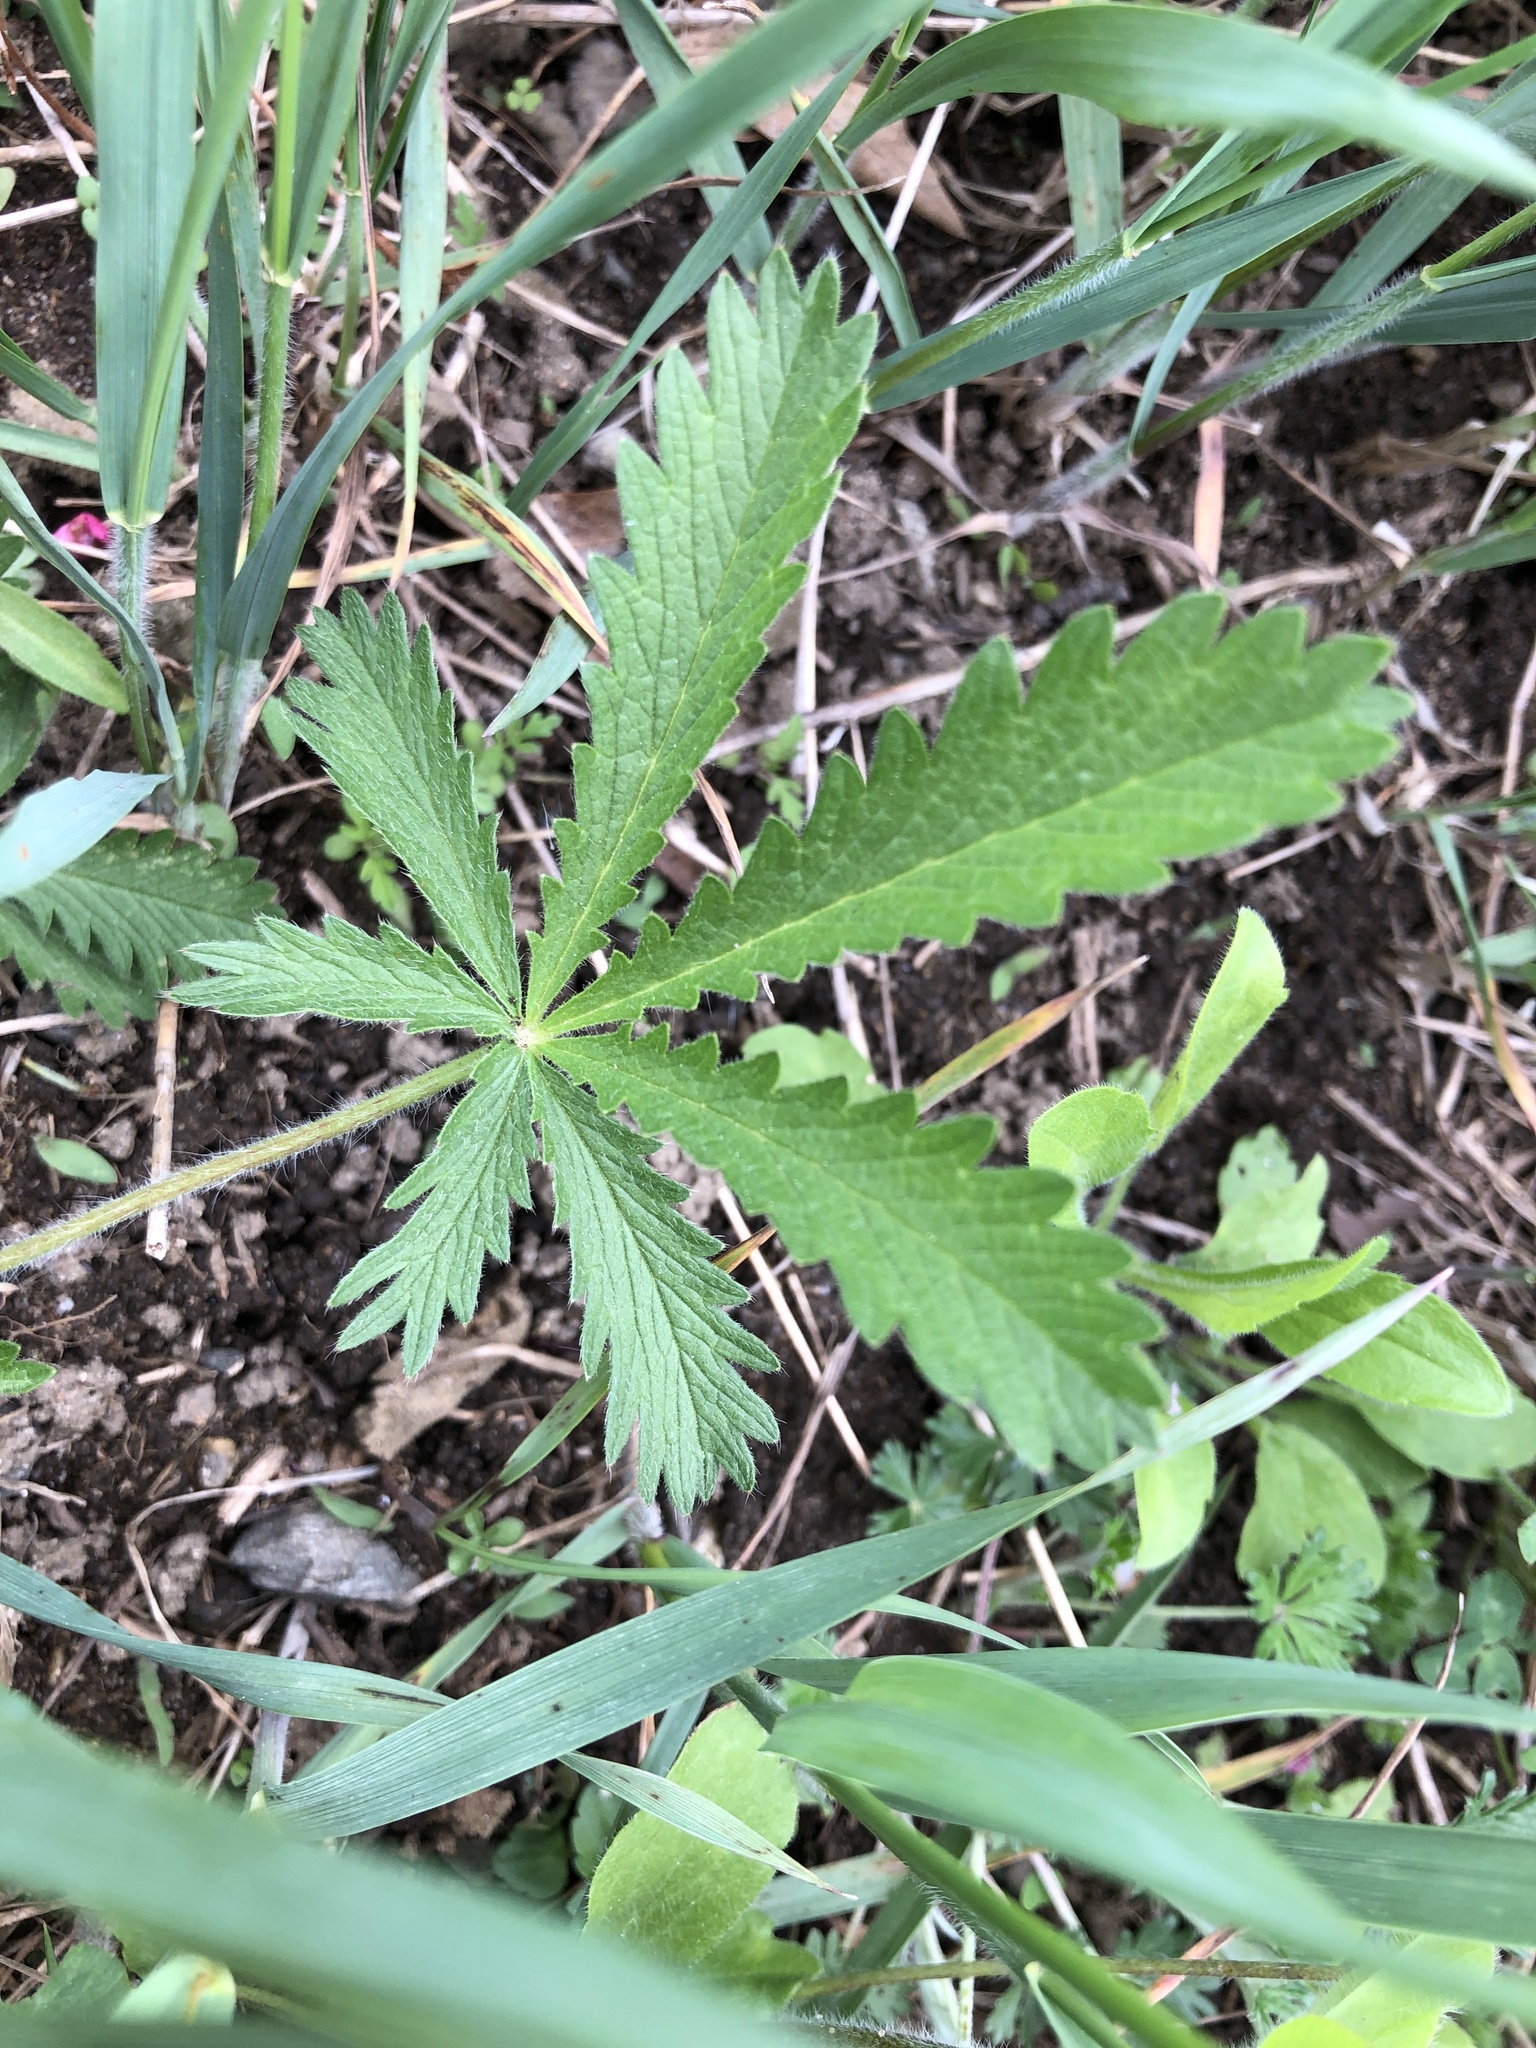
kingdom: Plantae
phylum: Tracheophyta
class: Magnoliopsida
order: Rosales
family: Rosaceae
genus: Potentilla
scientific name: Potentilla recta
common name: Sulphur cinquefoil
